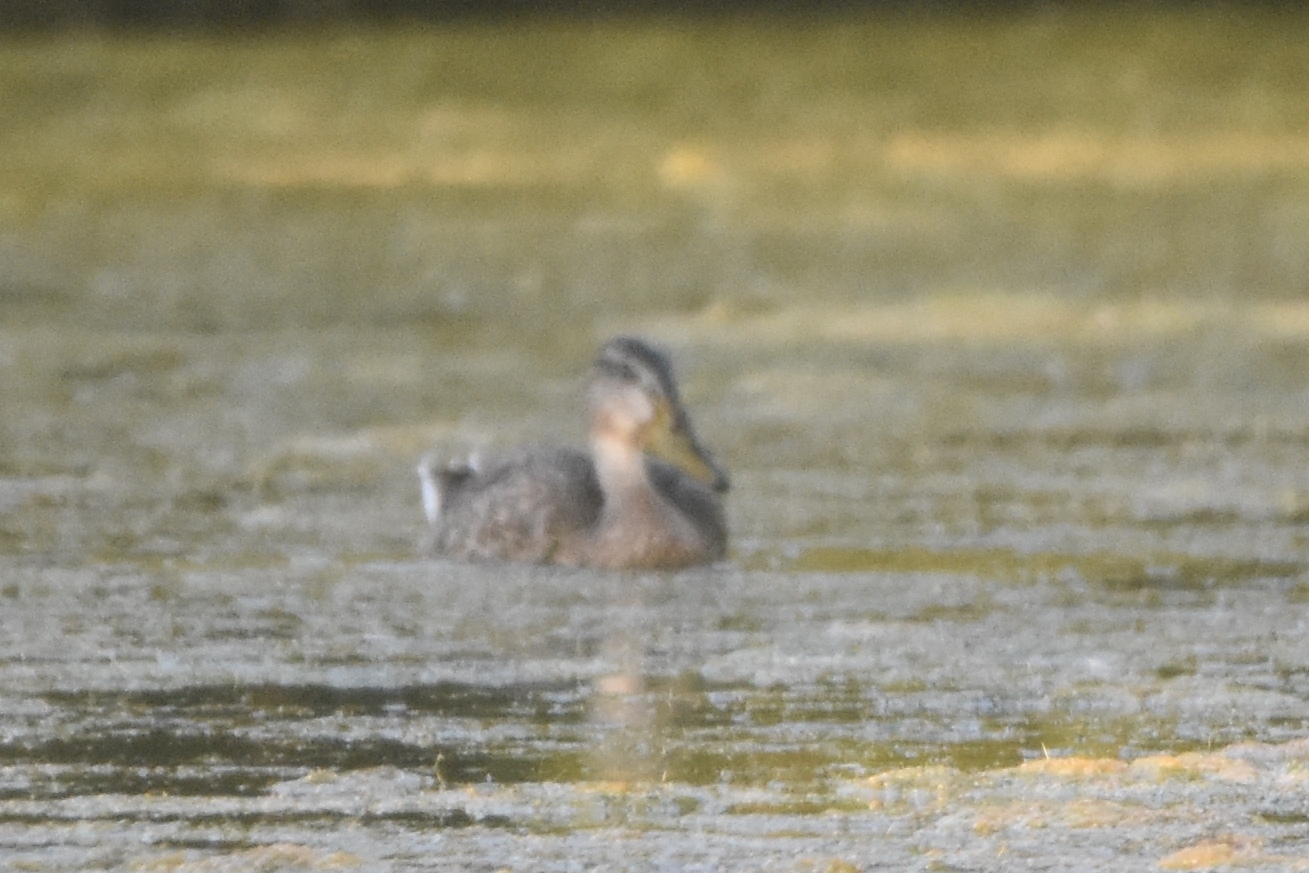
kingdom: Animalia
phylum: Chordata
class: Aves
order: Anseriformes
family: Anatidae
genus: Anas
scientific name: Anas platyrhynchos
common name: Mallard
